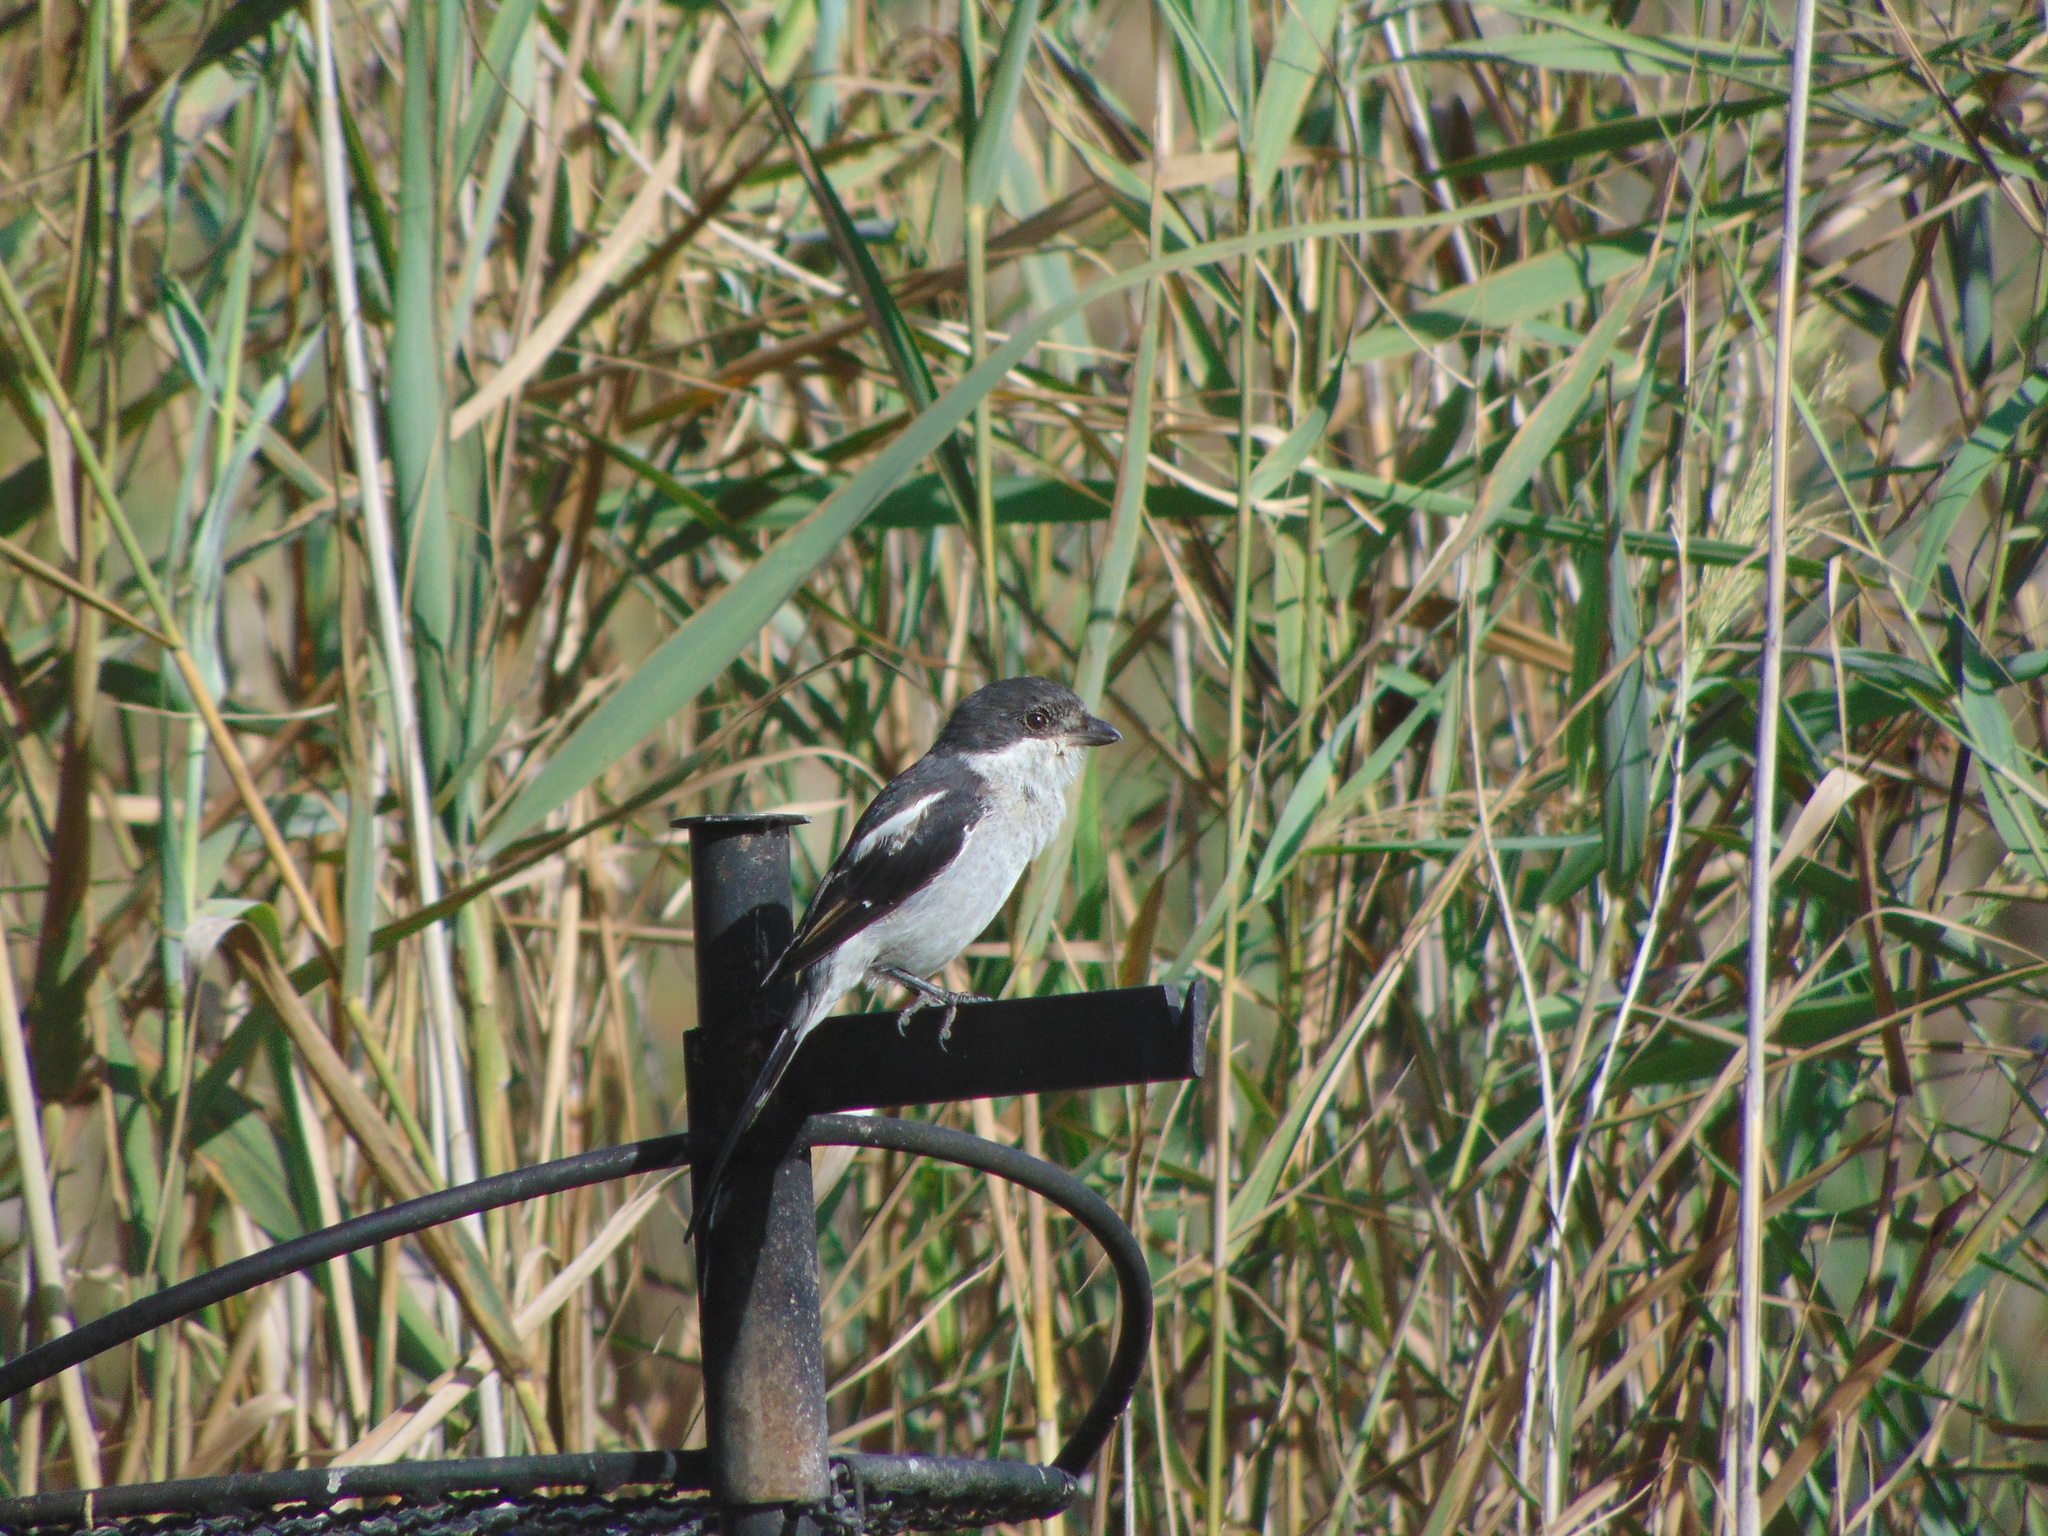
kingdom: Animalia
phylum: Chordata
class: Aves
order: Passeriformes
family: Laniidae
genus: Lanius
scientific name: Lanius collaris
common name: Southern fiscal
